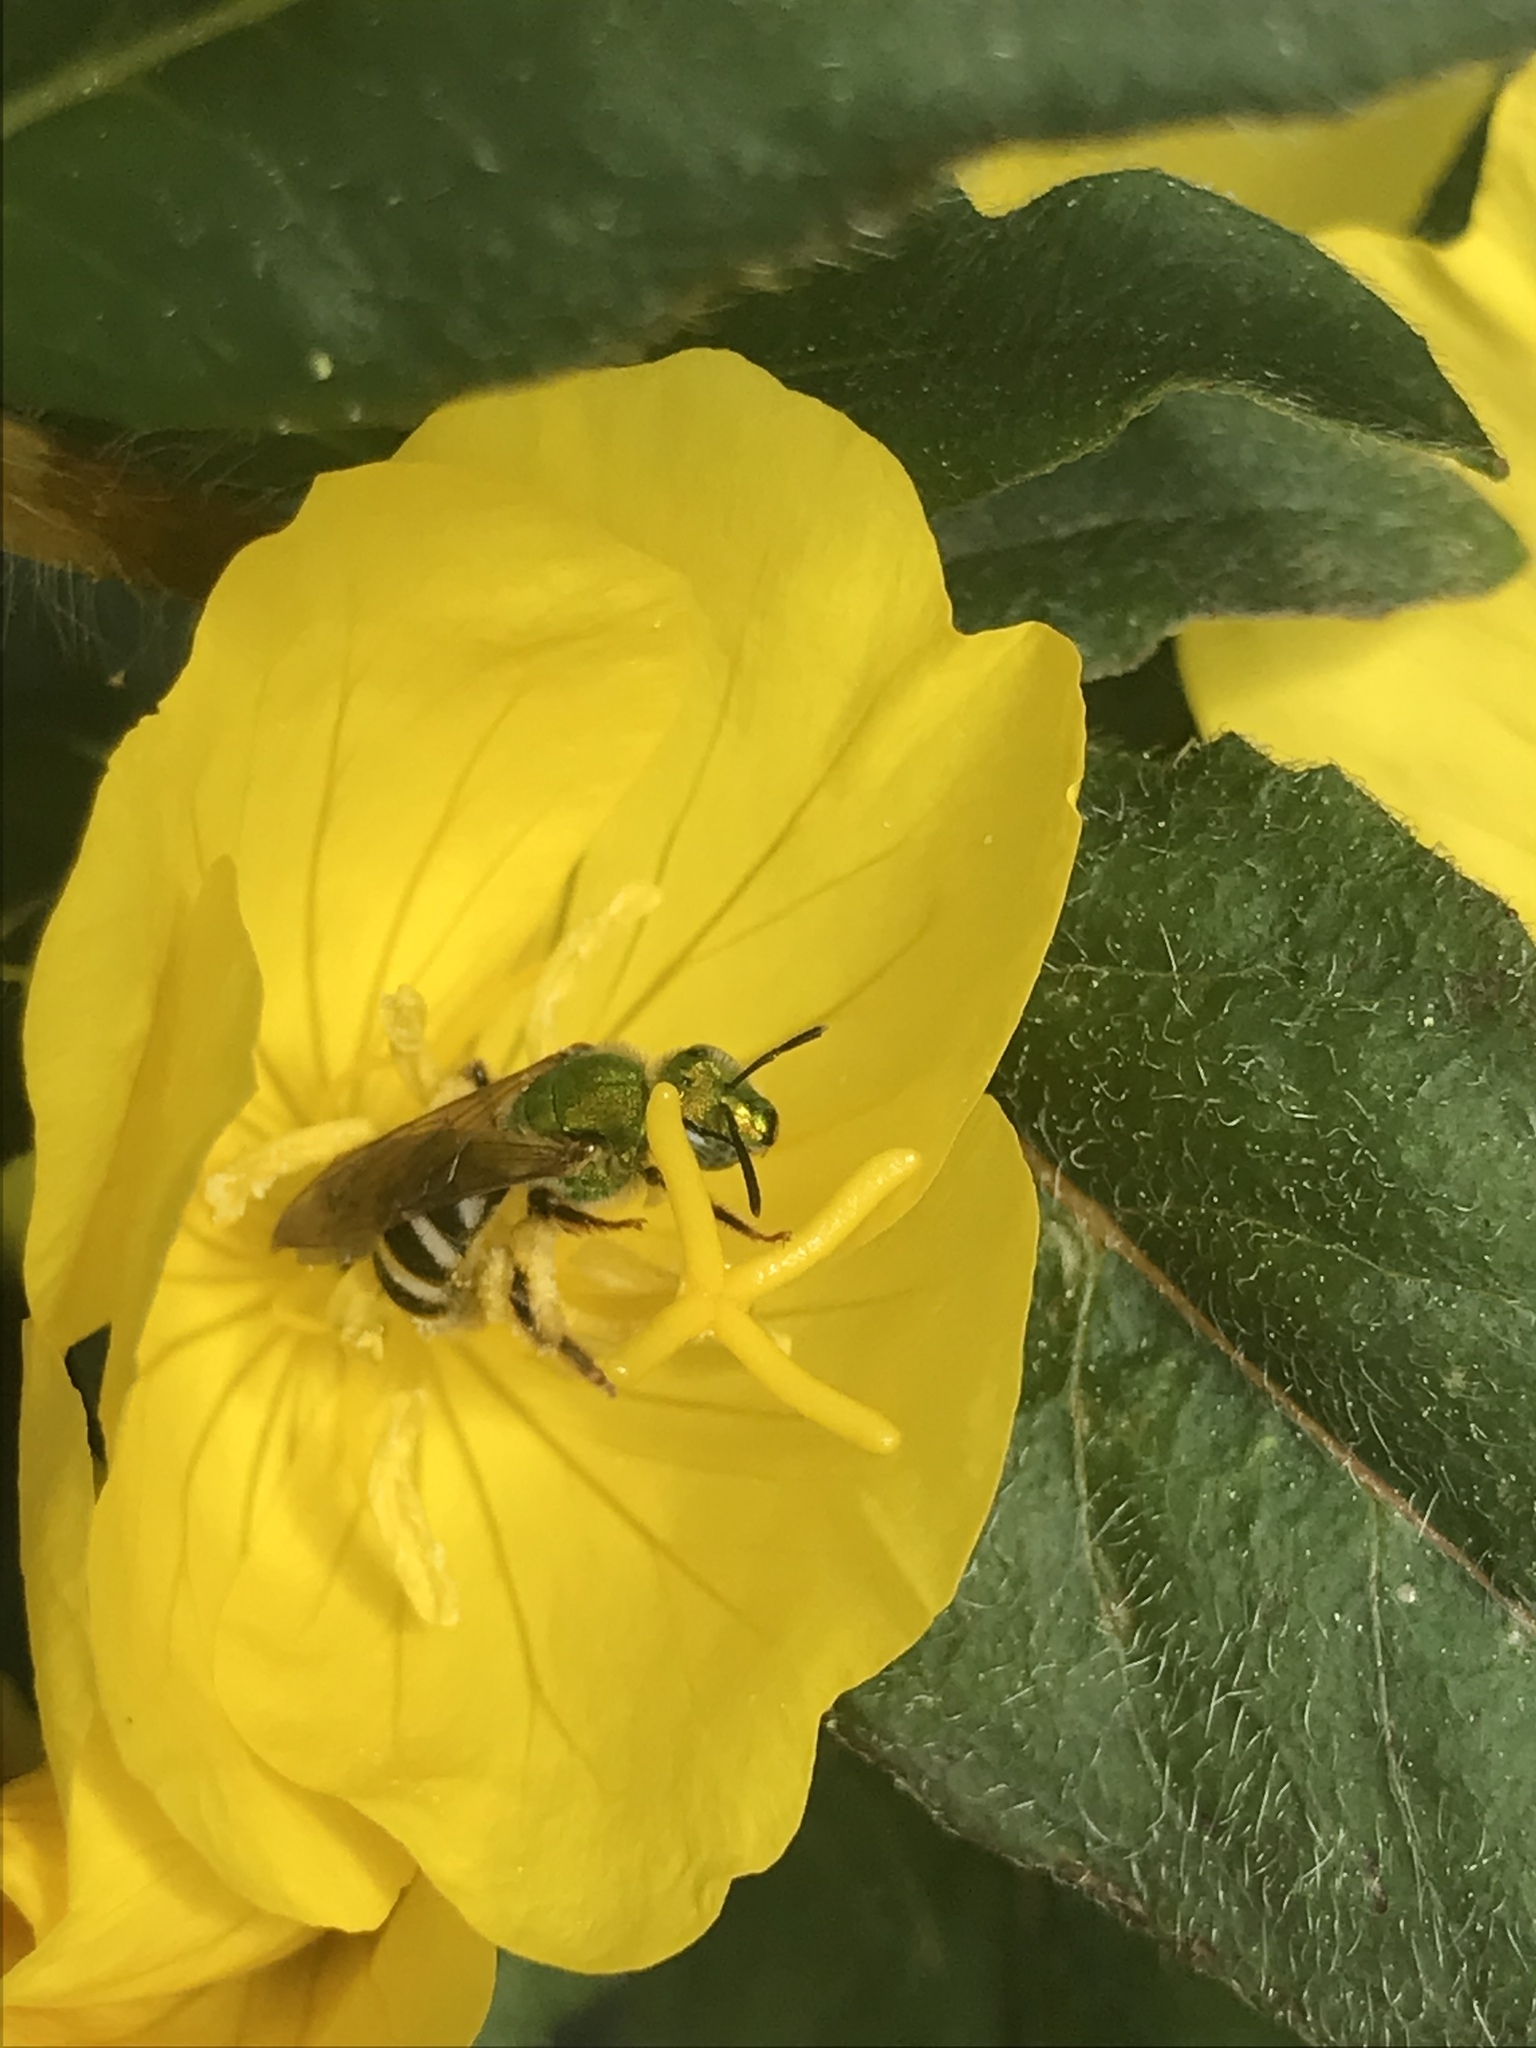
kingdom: Animalia
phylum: Arthropoda
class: Insecta
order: Hymenoptera
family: Halictidae
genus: Agapostemon
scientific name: Agapostemon virescens
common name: Bicolored striped sweat bee
